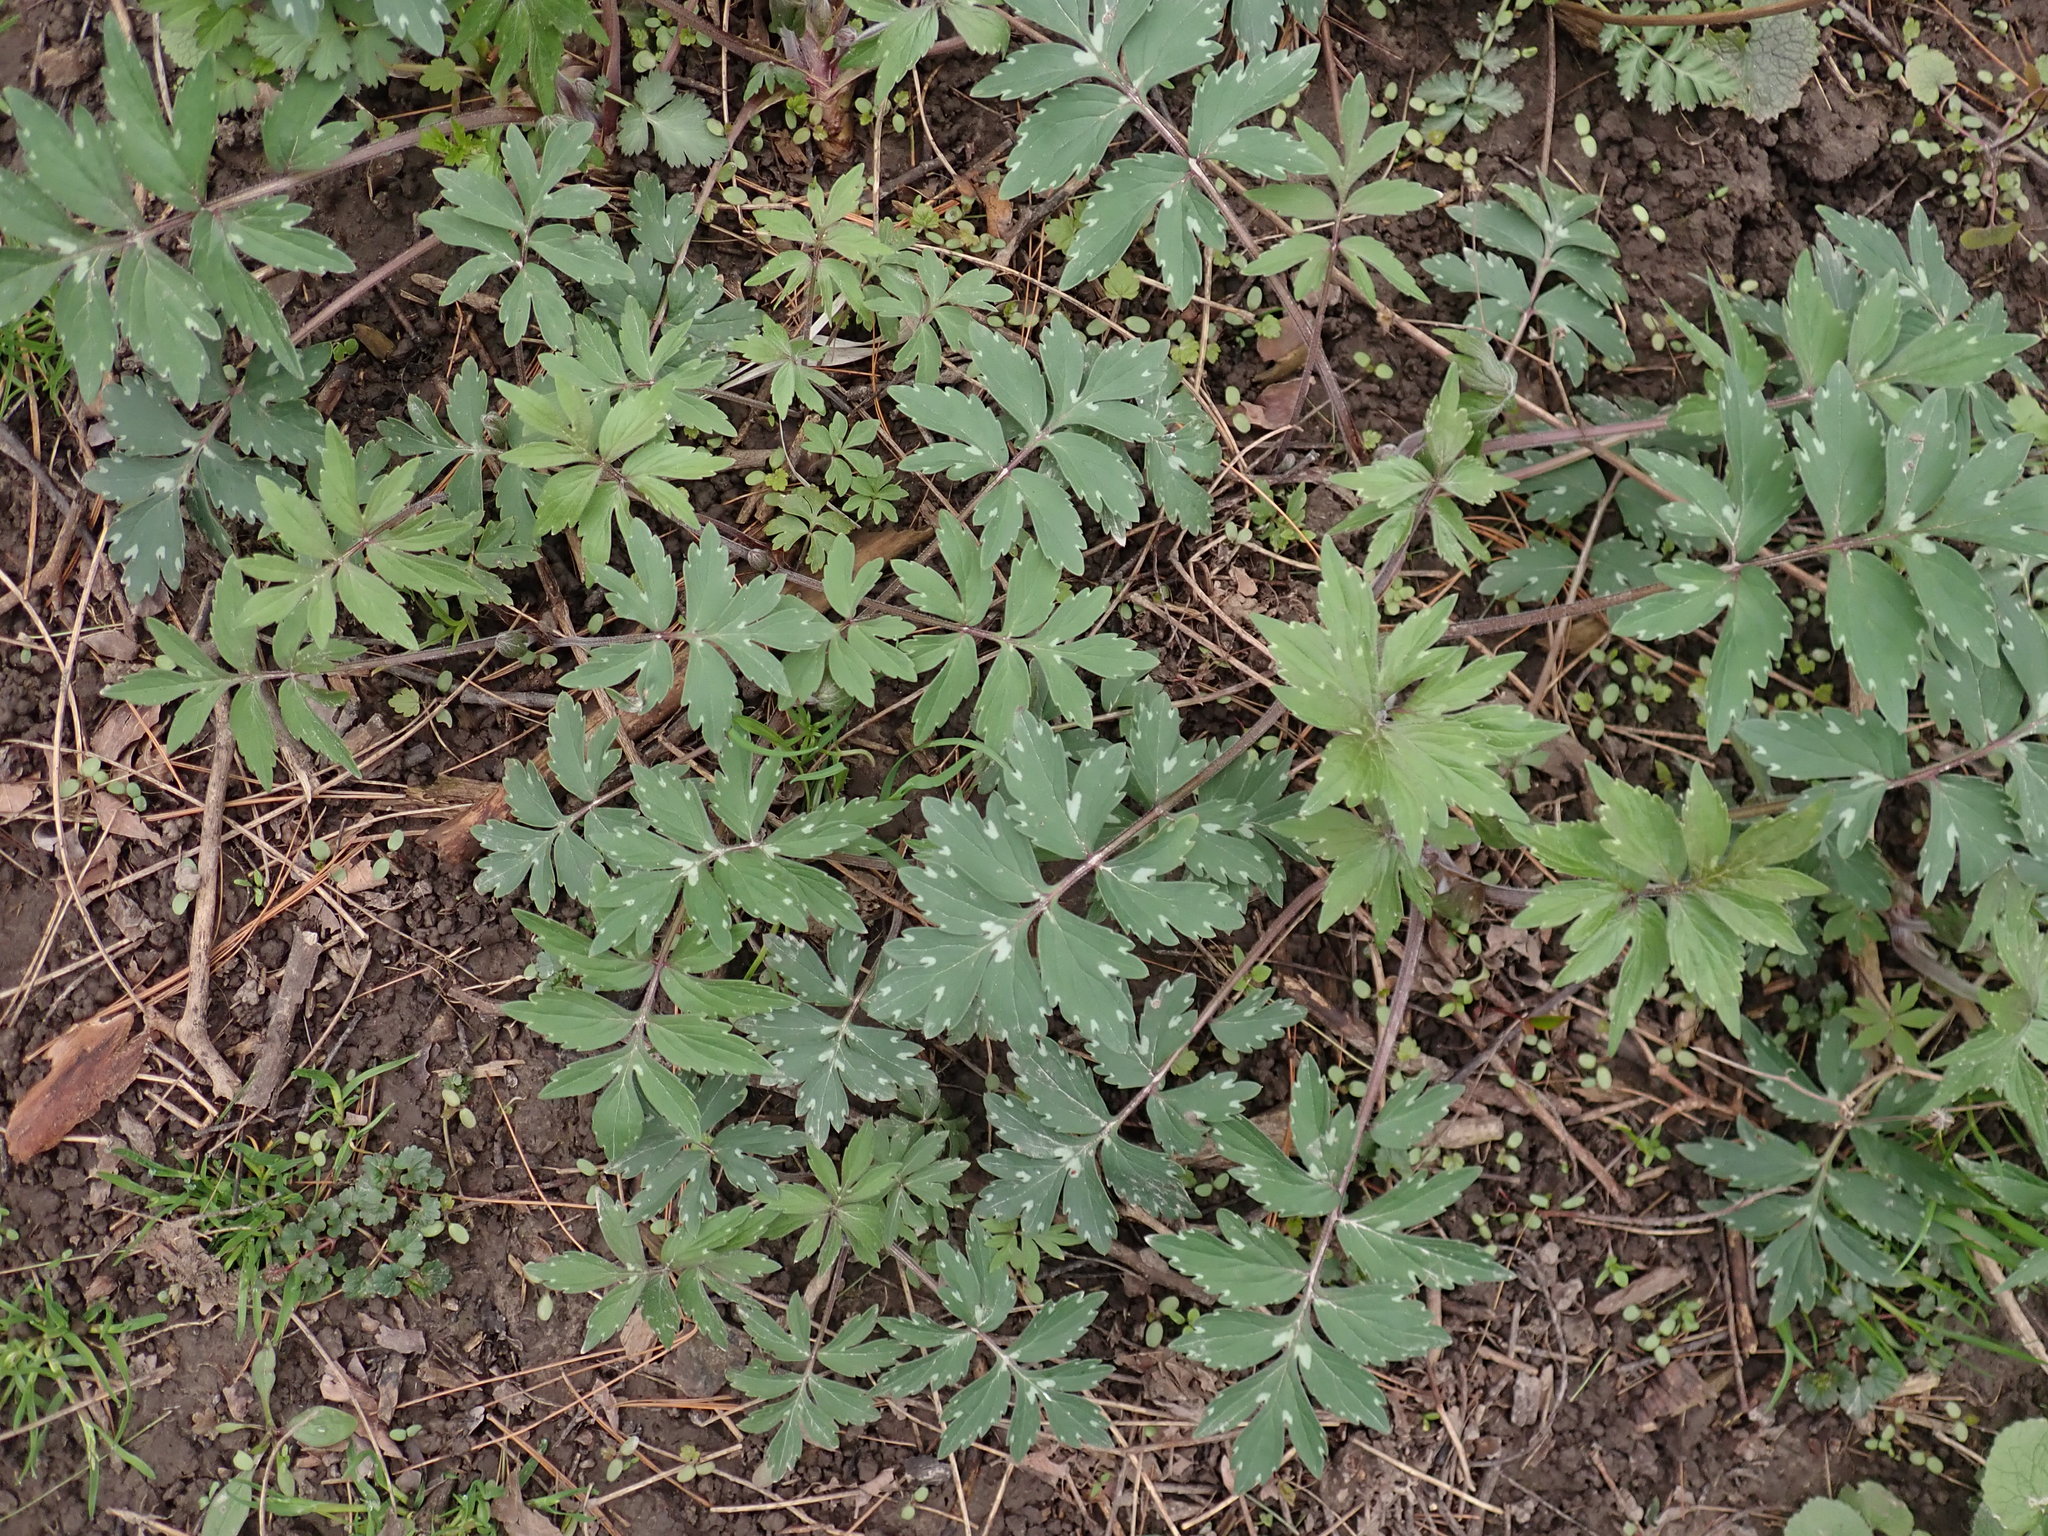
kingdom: Plantae
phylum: Tracheophyta
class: Magnoliopsida
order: Boraginales
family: Hydrophyllaceae
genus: Hydrophyllum
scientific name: Hydrophyllum virginianum
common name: Virginia waterleaf
